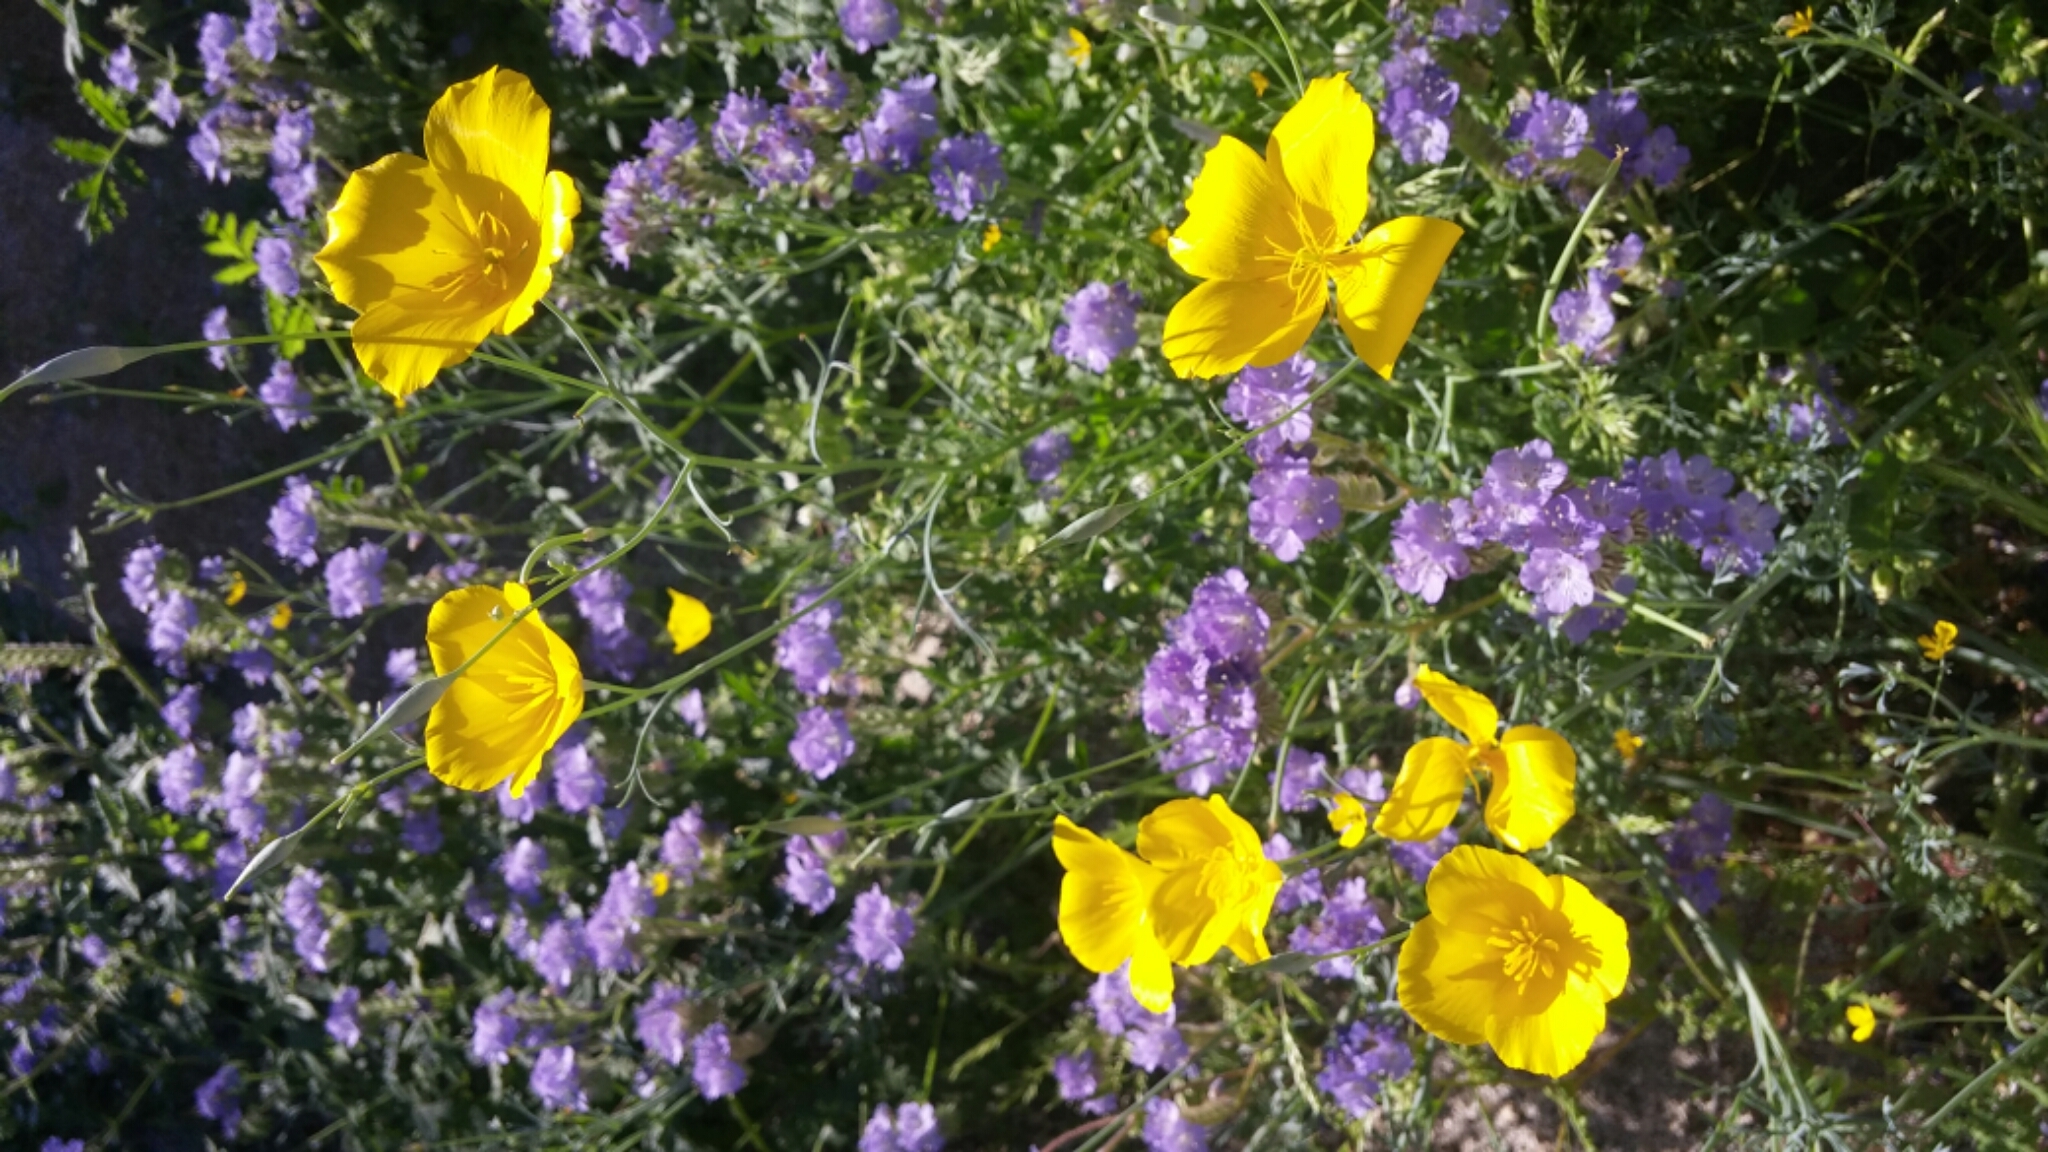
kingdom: Plantae
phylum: Tracheophyta
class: Magnoliopsida
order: Ranunculales
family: Papaveraceae
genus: Eschscholzia
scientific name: Eschscholzia parishii
